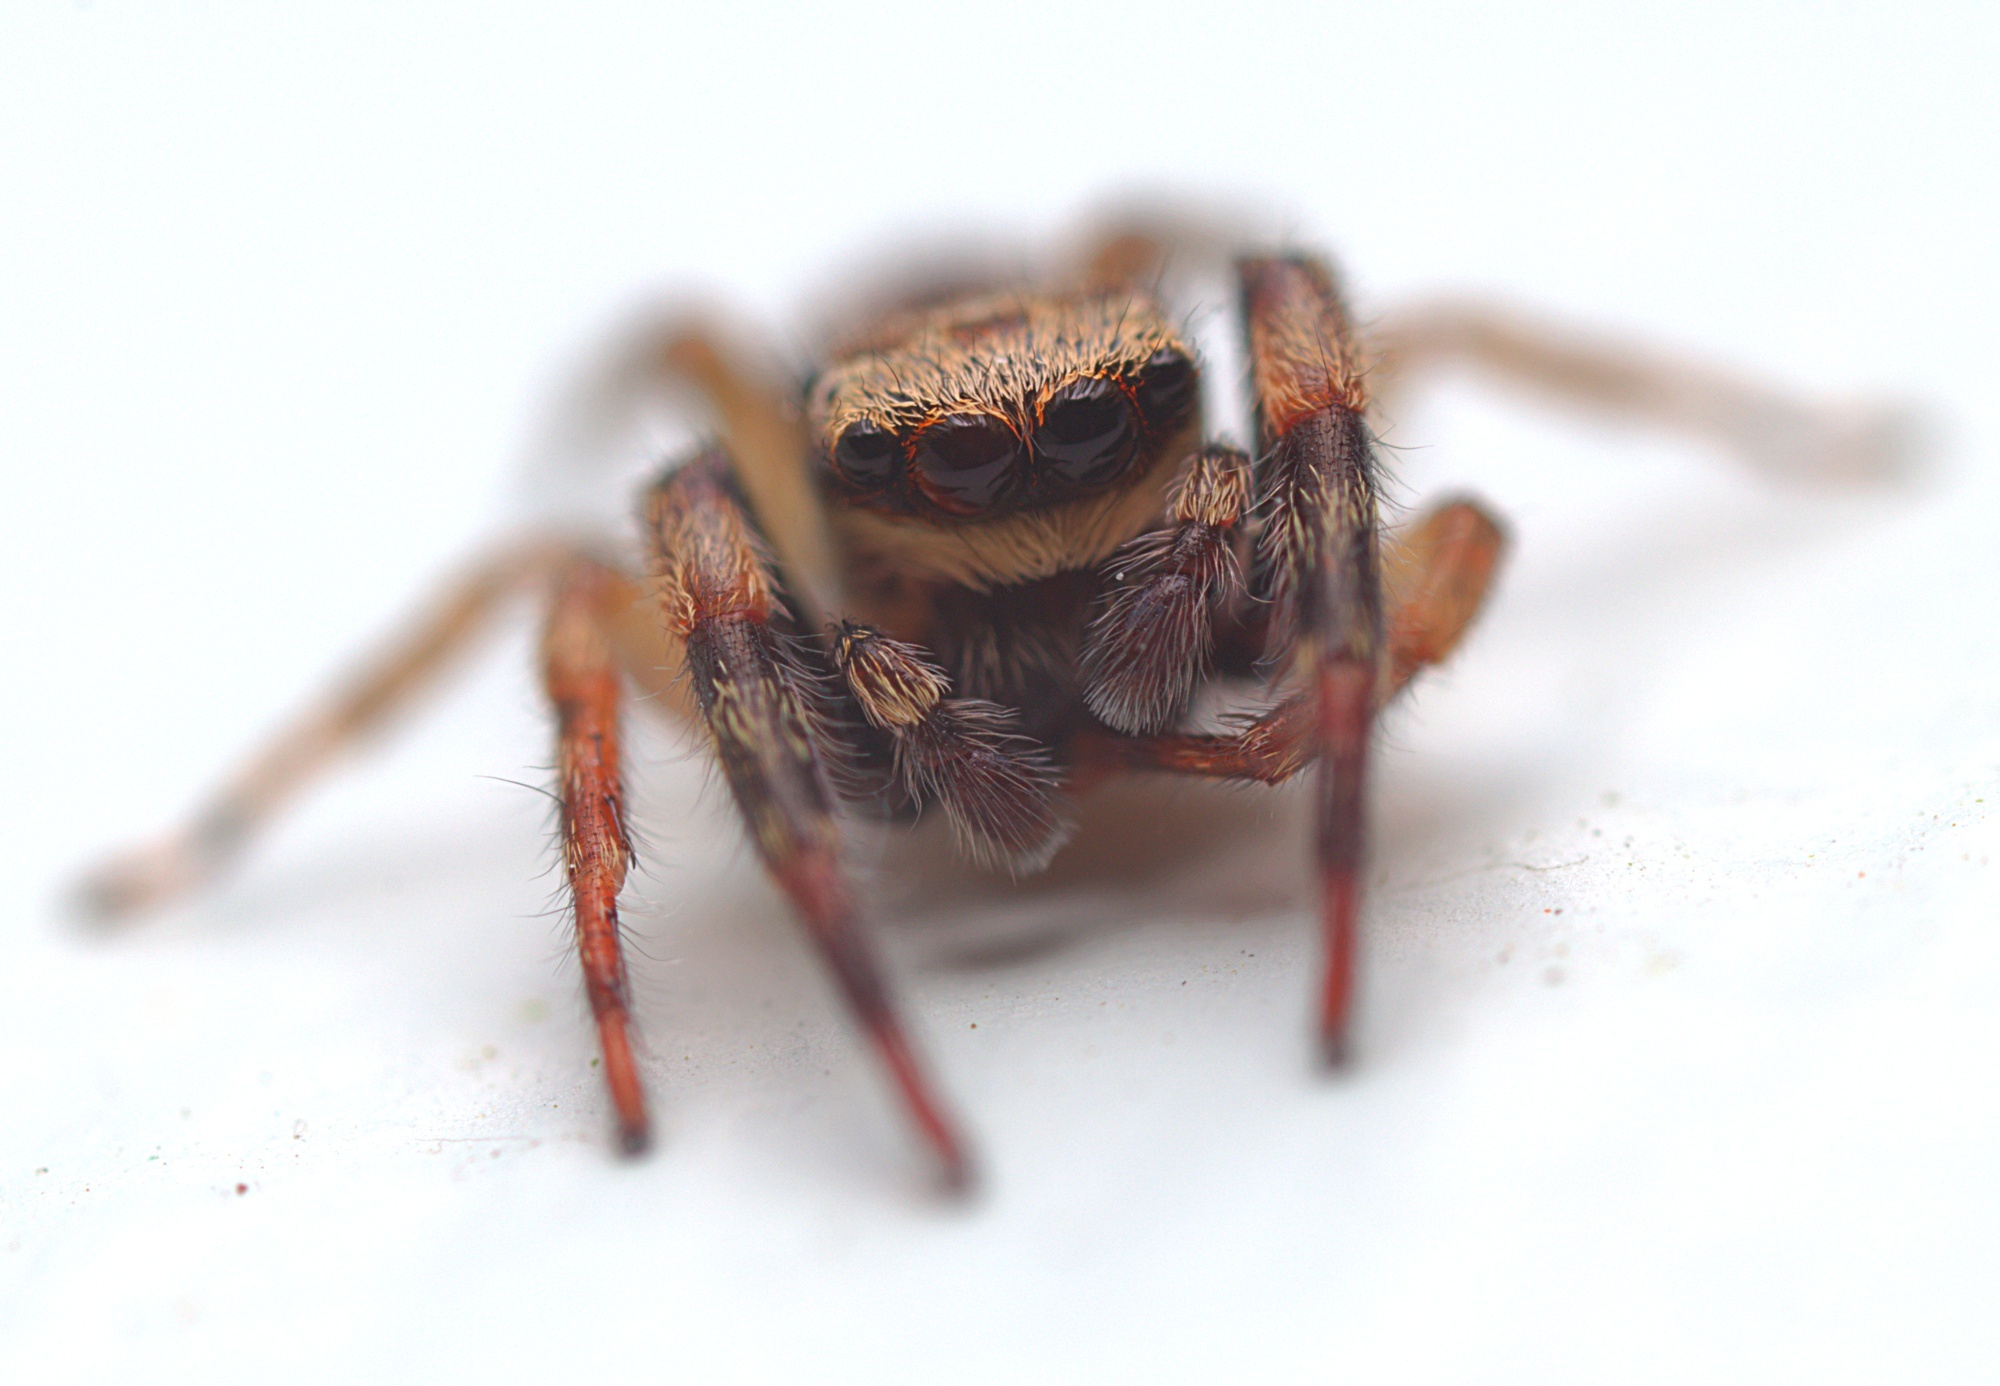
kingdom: Animalia
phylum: Arthropoda
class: Arachnida
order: Araneae
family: Salticidae
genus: Trite
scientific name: Trite auricoma
